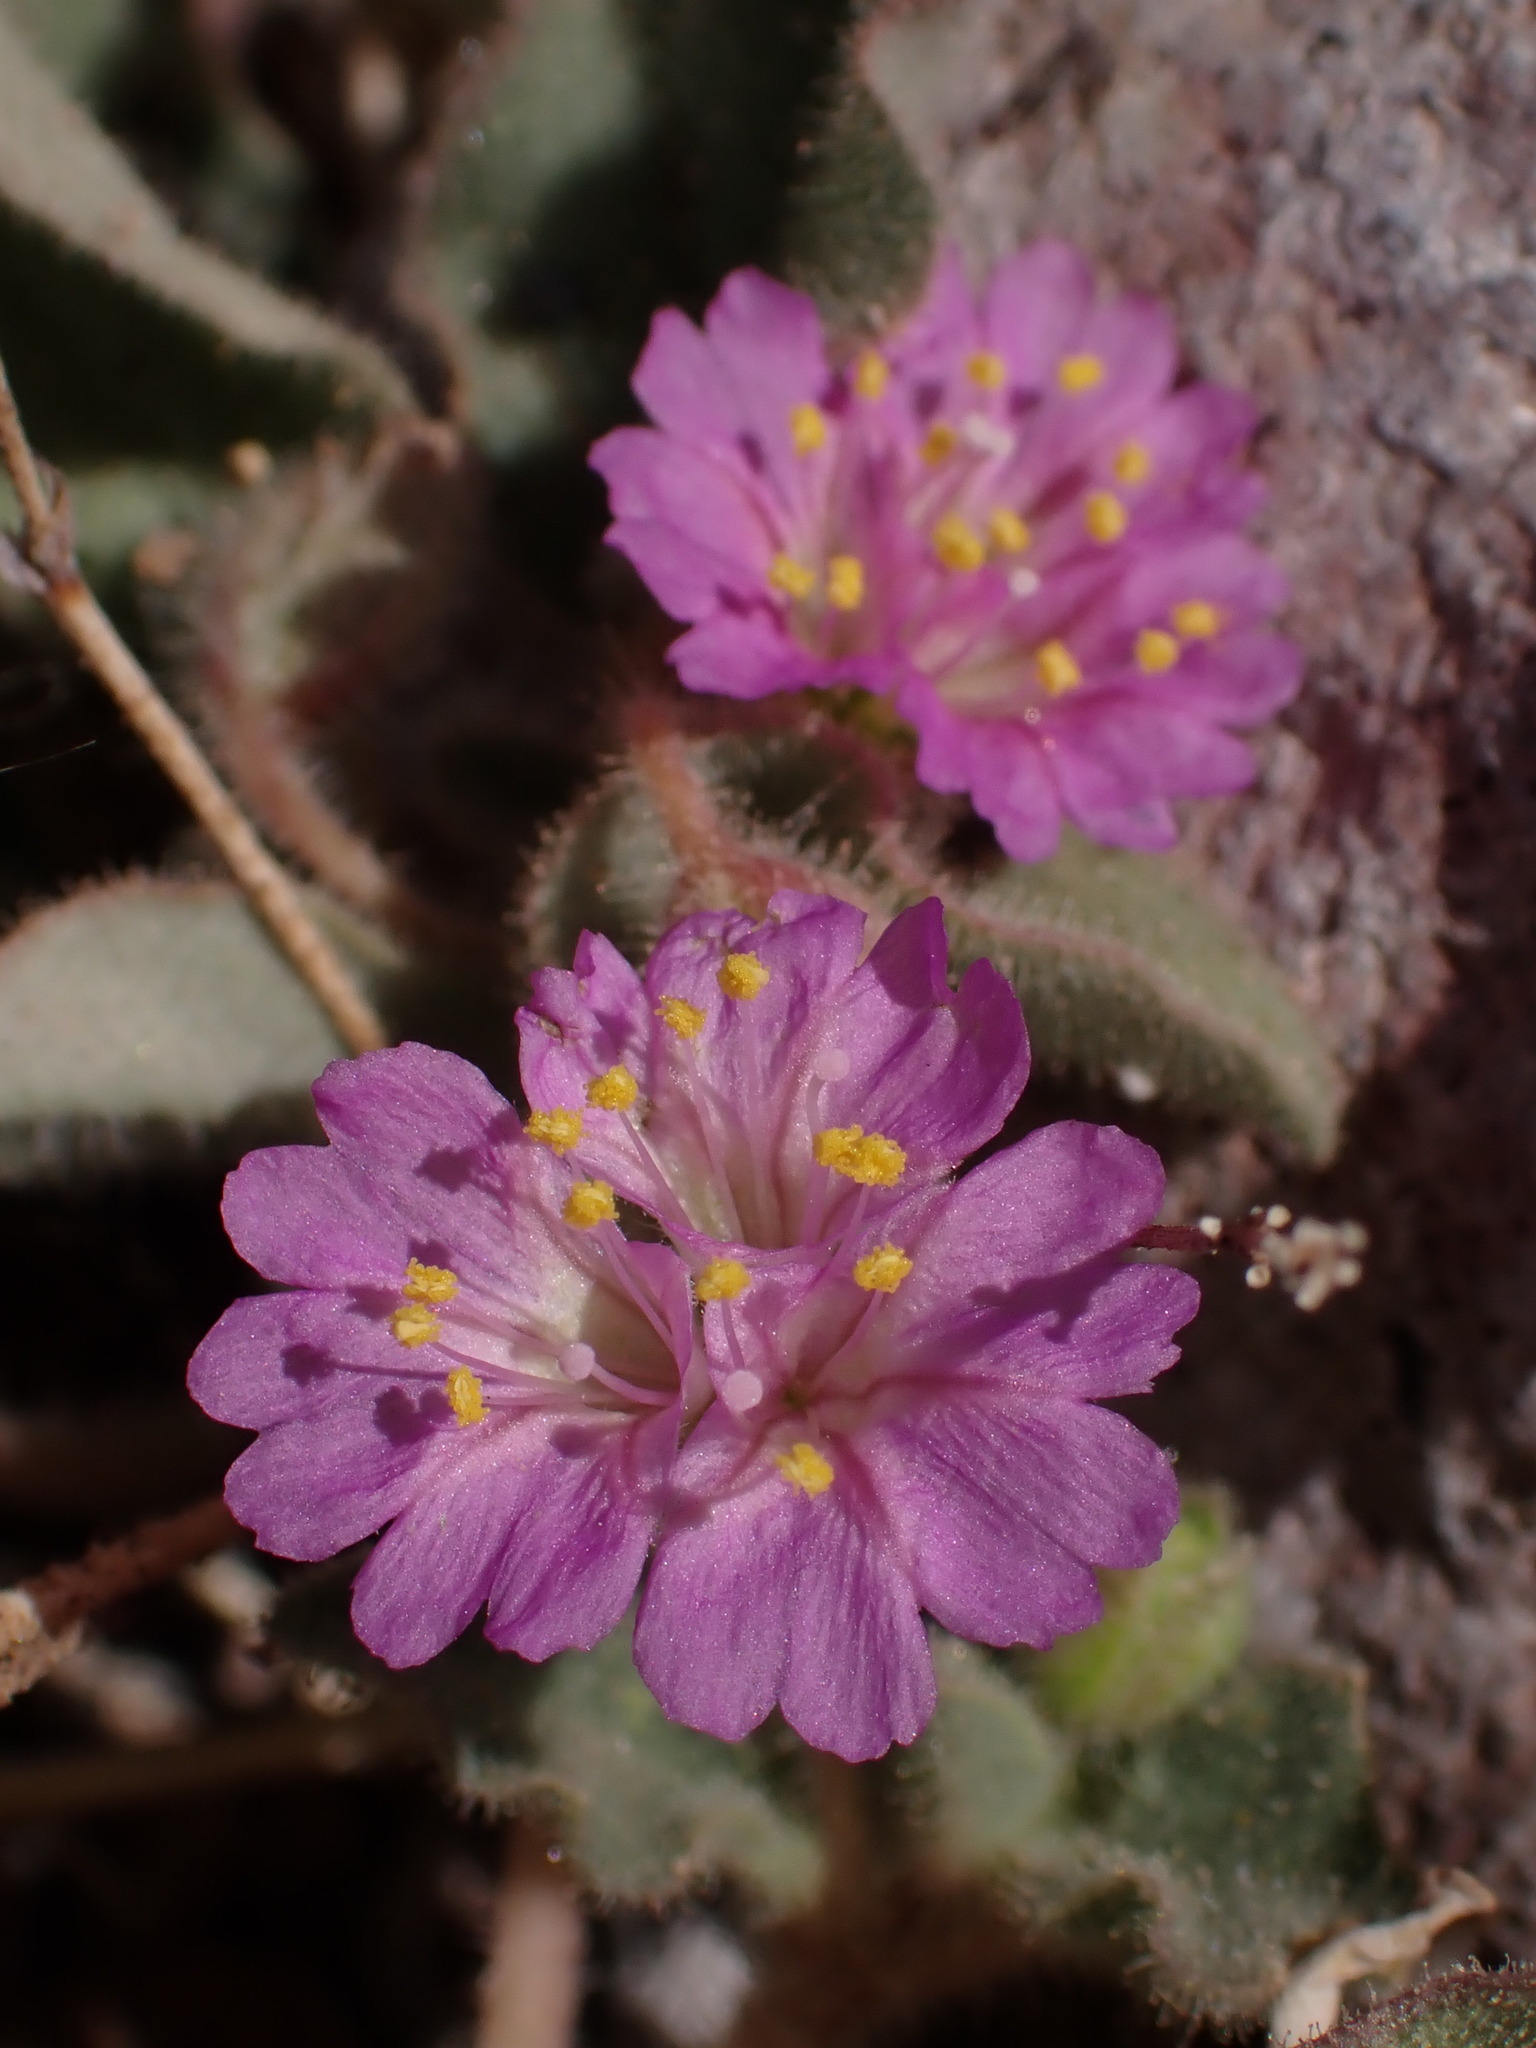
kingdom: Plantae
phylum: Tracheophyta
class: Magnoliopsida
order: Caryophyllales
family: Nyctaginaceae
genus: Allionia
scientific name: Allionia incarnata
